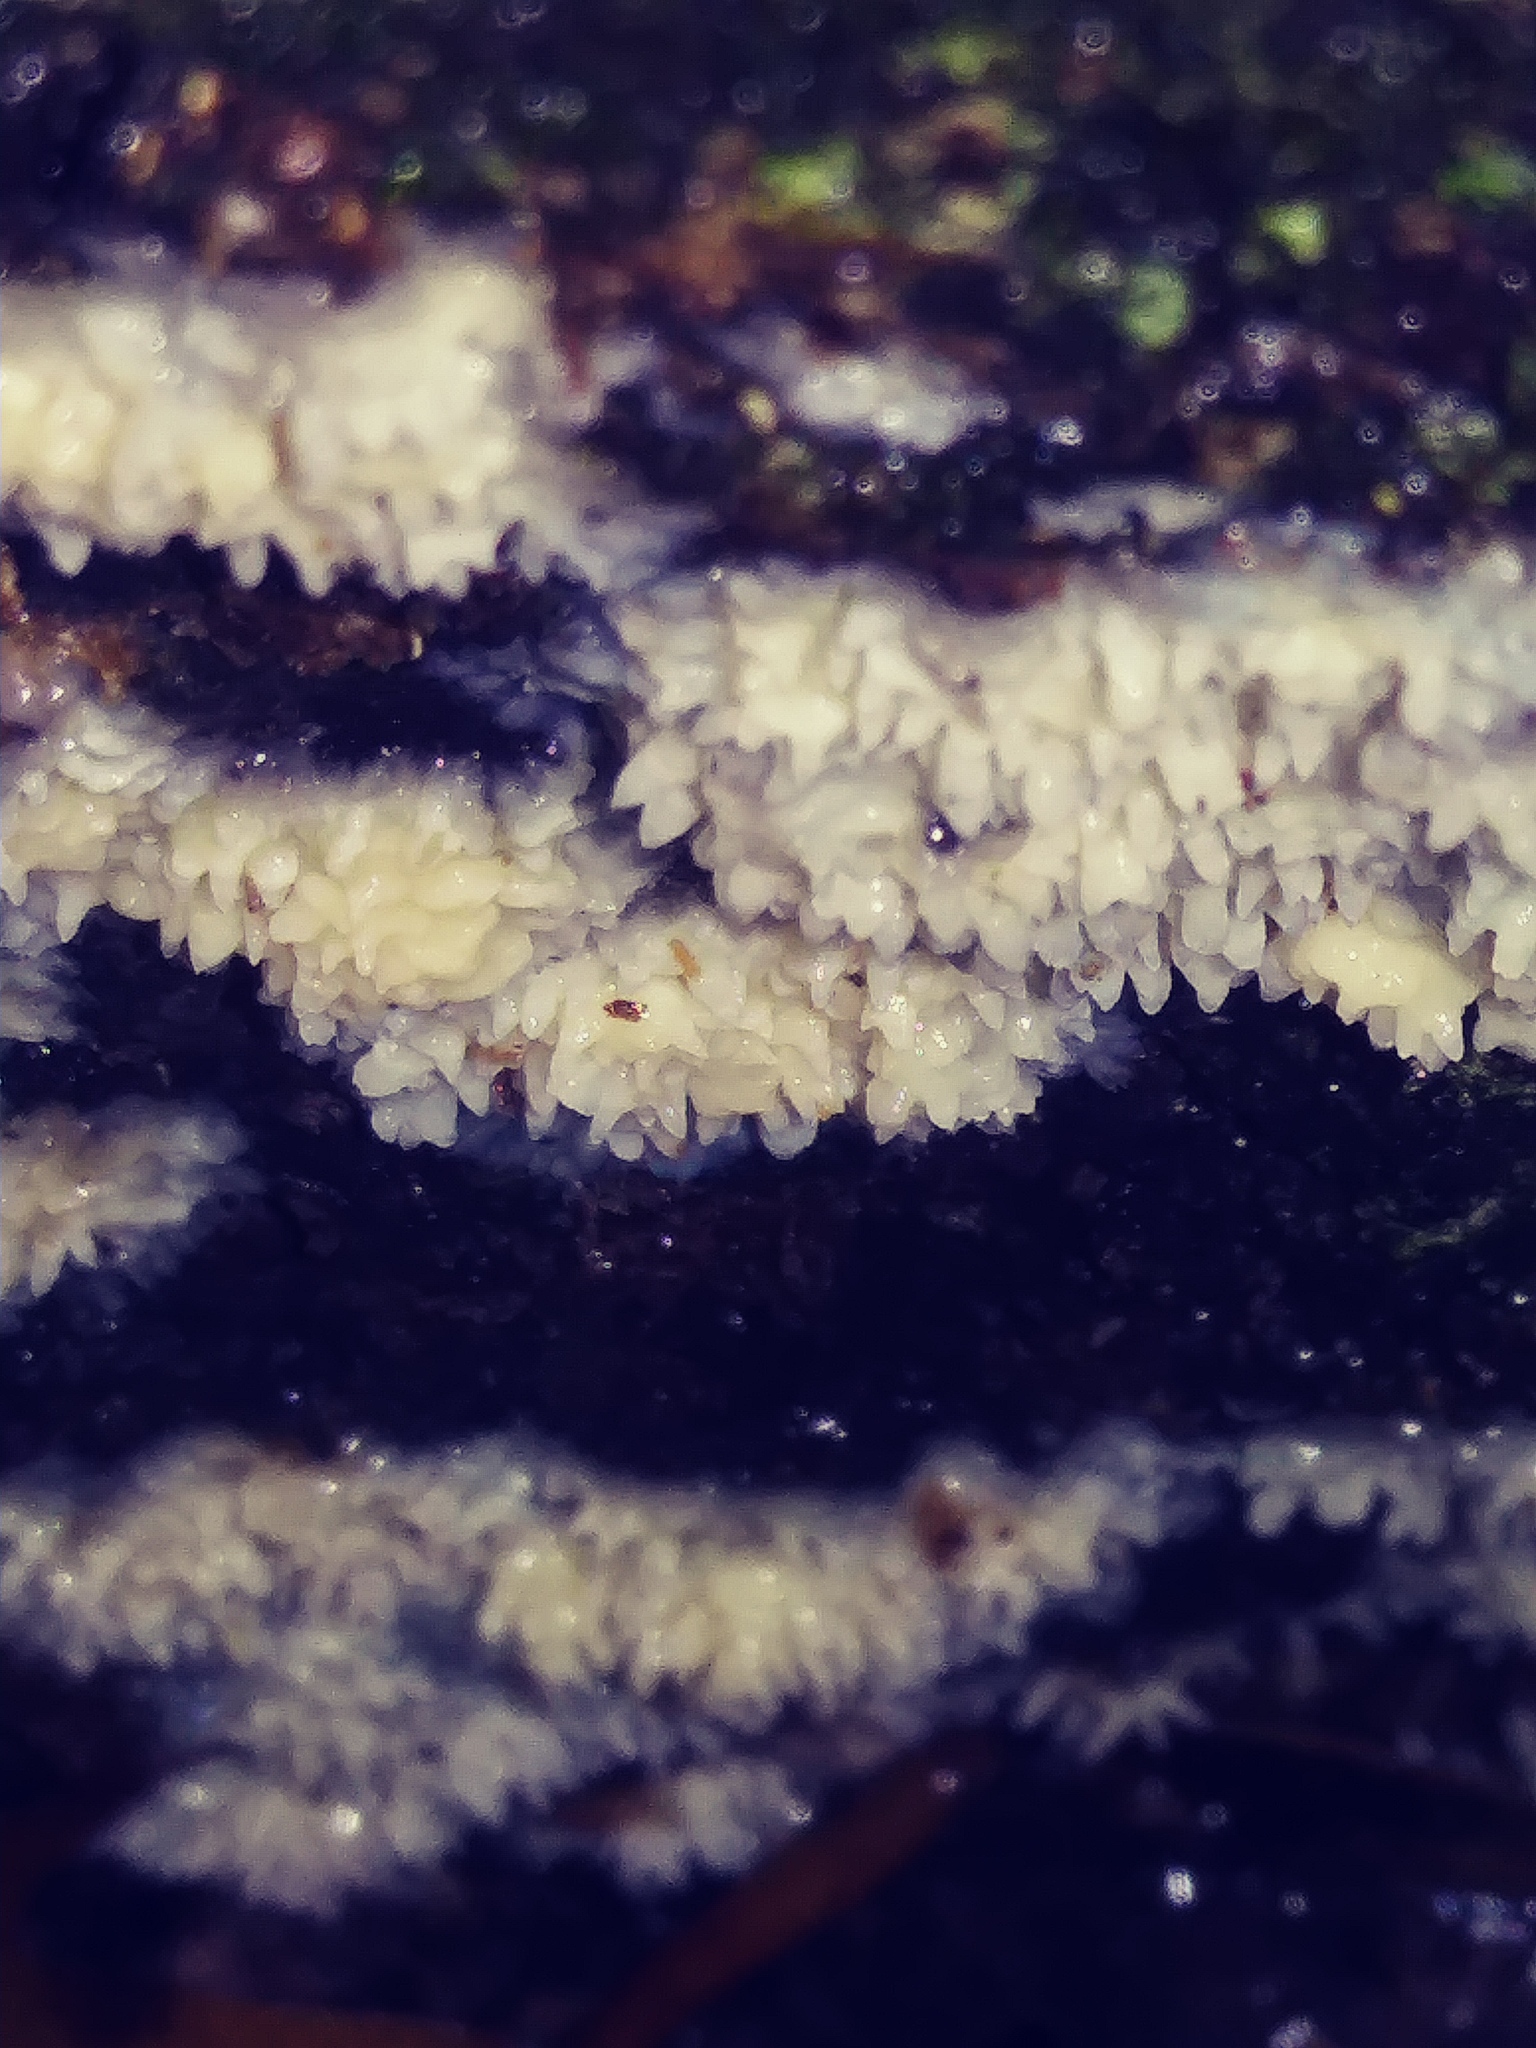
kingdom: Fungi
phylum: Basidiomycota
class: Agaricomycetes
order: Agaricales
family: Radulomycetaceae
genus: Radulomyces
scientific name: Radulomyces copelandii
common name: Asian beauty
